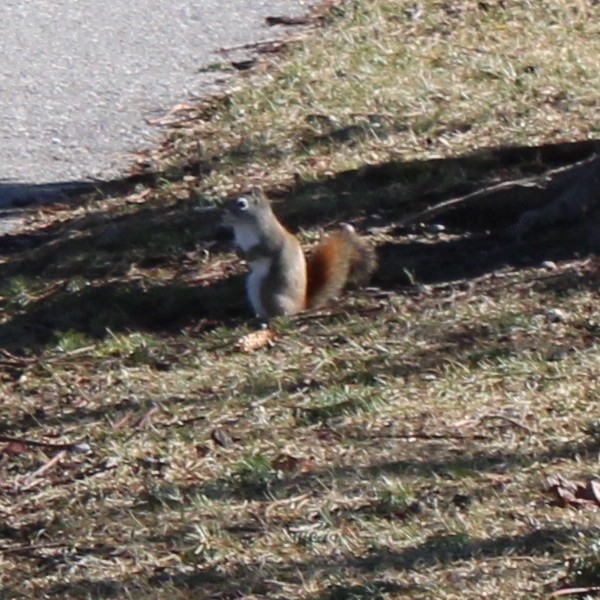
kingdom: Animalia
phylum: Chordata
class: Mammalia
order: Rodentia
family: Sciuridae
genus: Tamiasciurus
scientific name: Tamiasciurus hudsonicus
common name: Red squirrel
